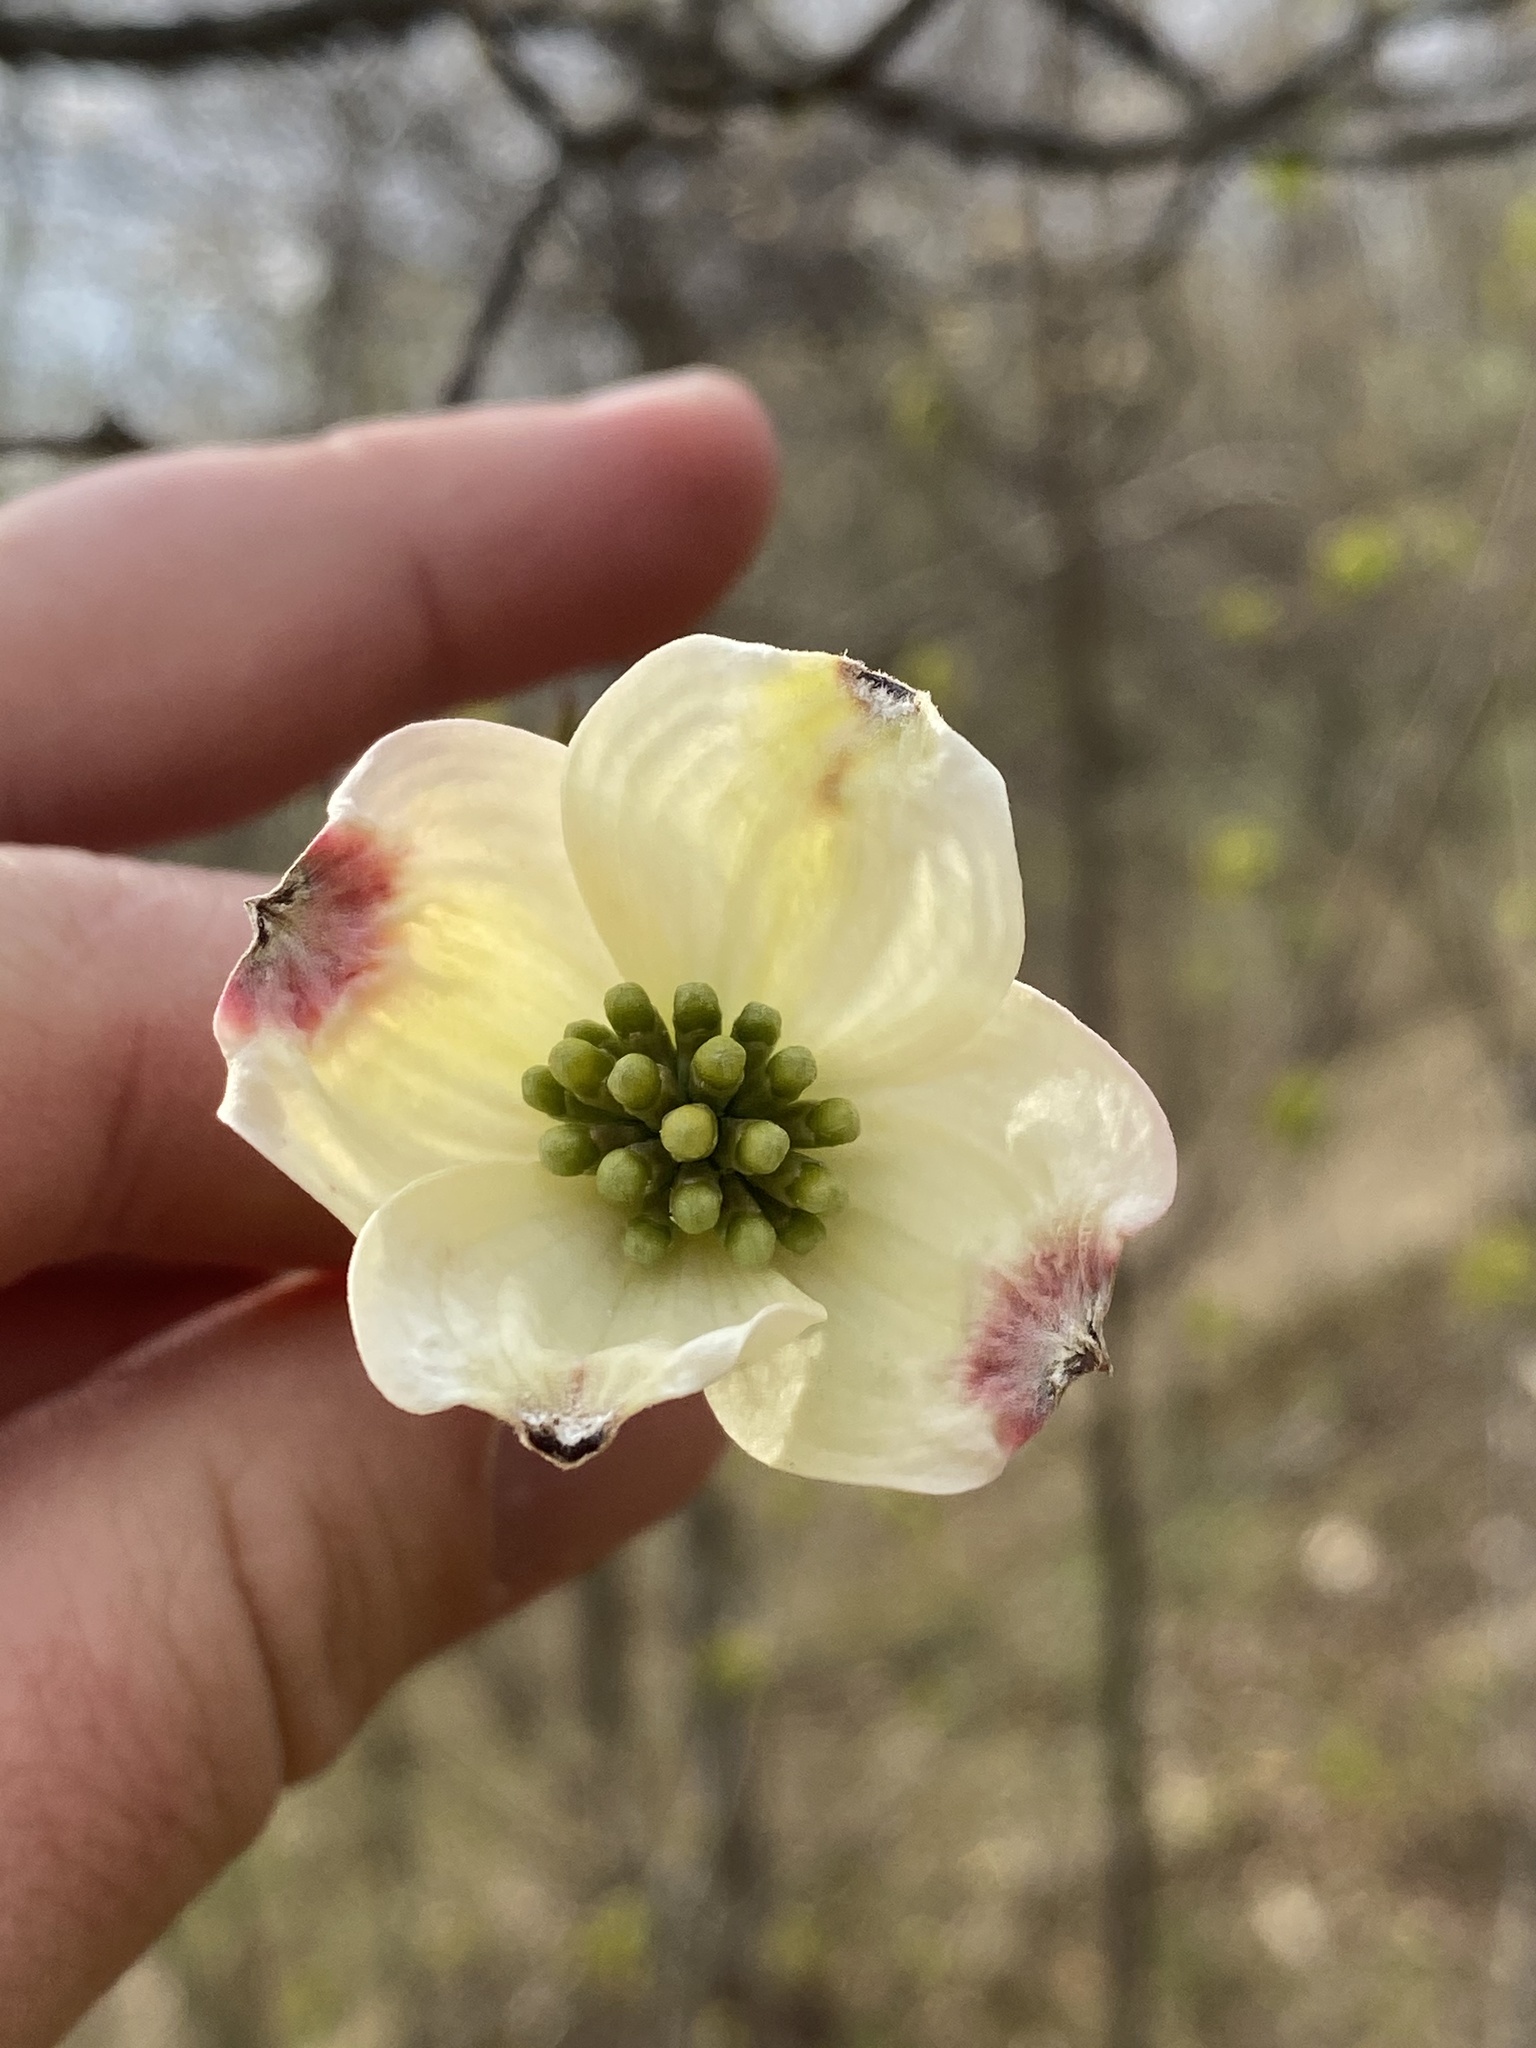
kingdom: Plantae
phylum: Tracheophyta
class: Magnoliopsida
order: Cornales
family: Cornaceae
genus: Cornus
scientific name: Cornus florida
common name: Flowering dogwood
